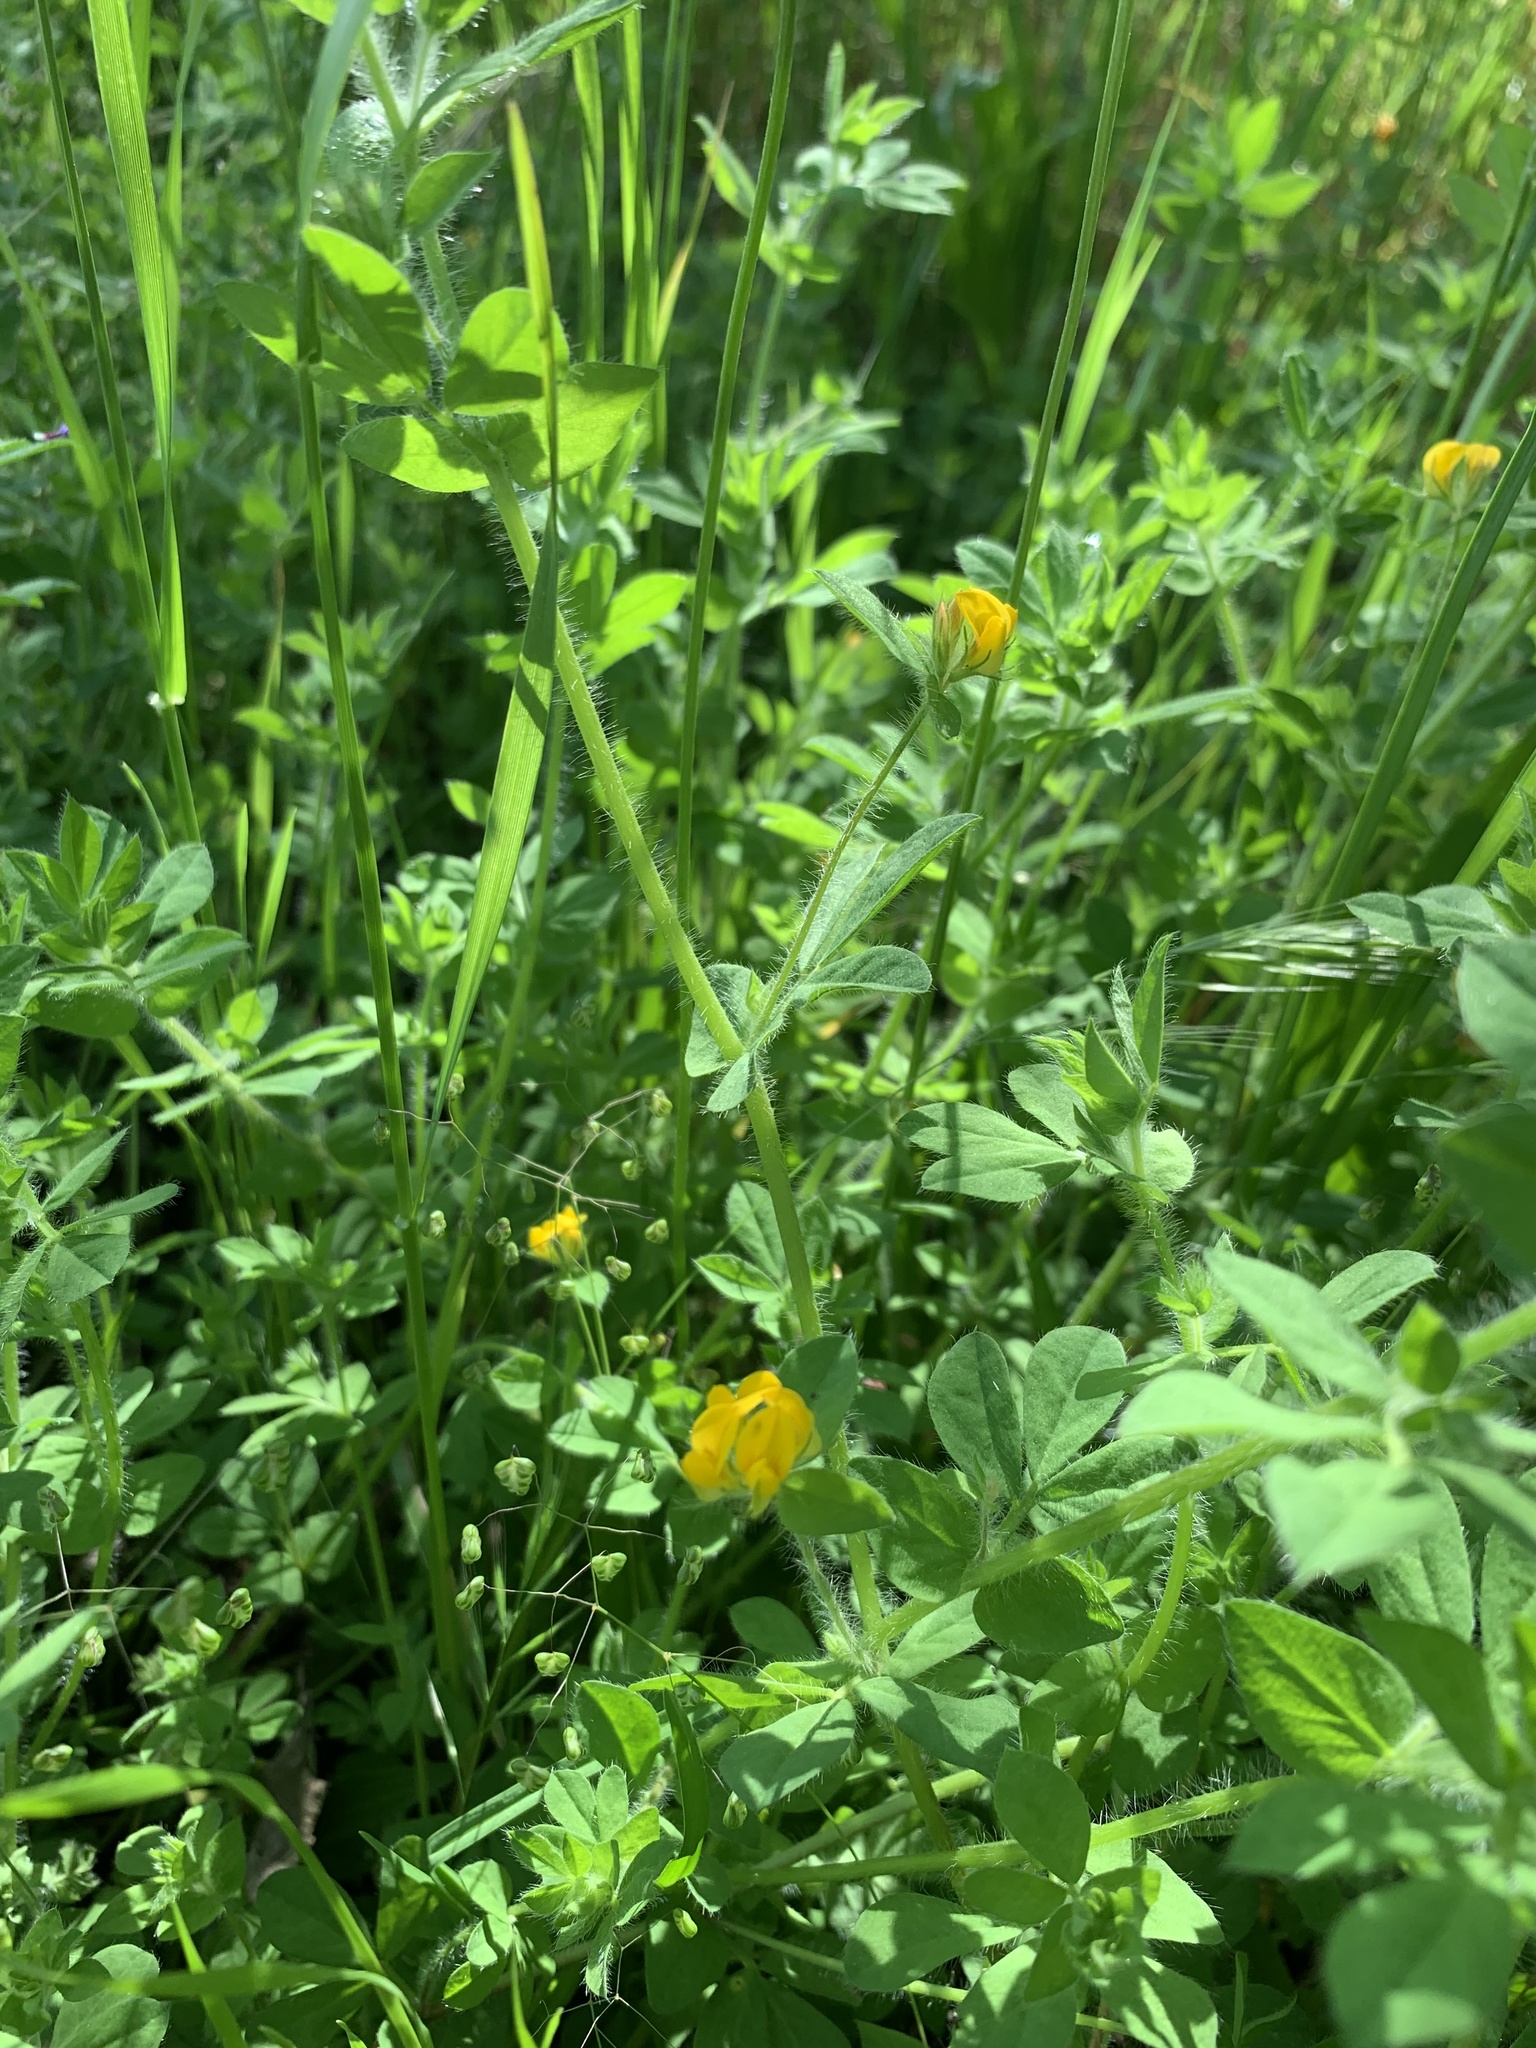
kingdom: Plantae
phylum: Tracheophyta
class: Magnoliopsida
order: Fabales
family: Fabaceae
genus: Lotus
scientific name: Lotus subbiflorus
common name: Hairy bird's-foot trefoil
